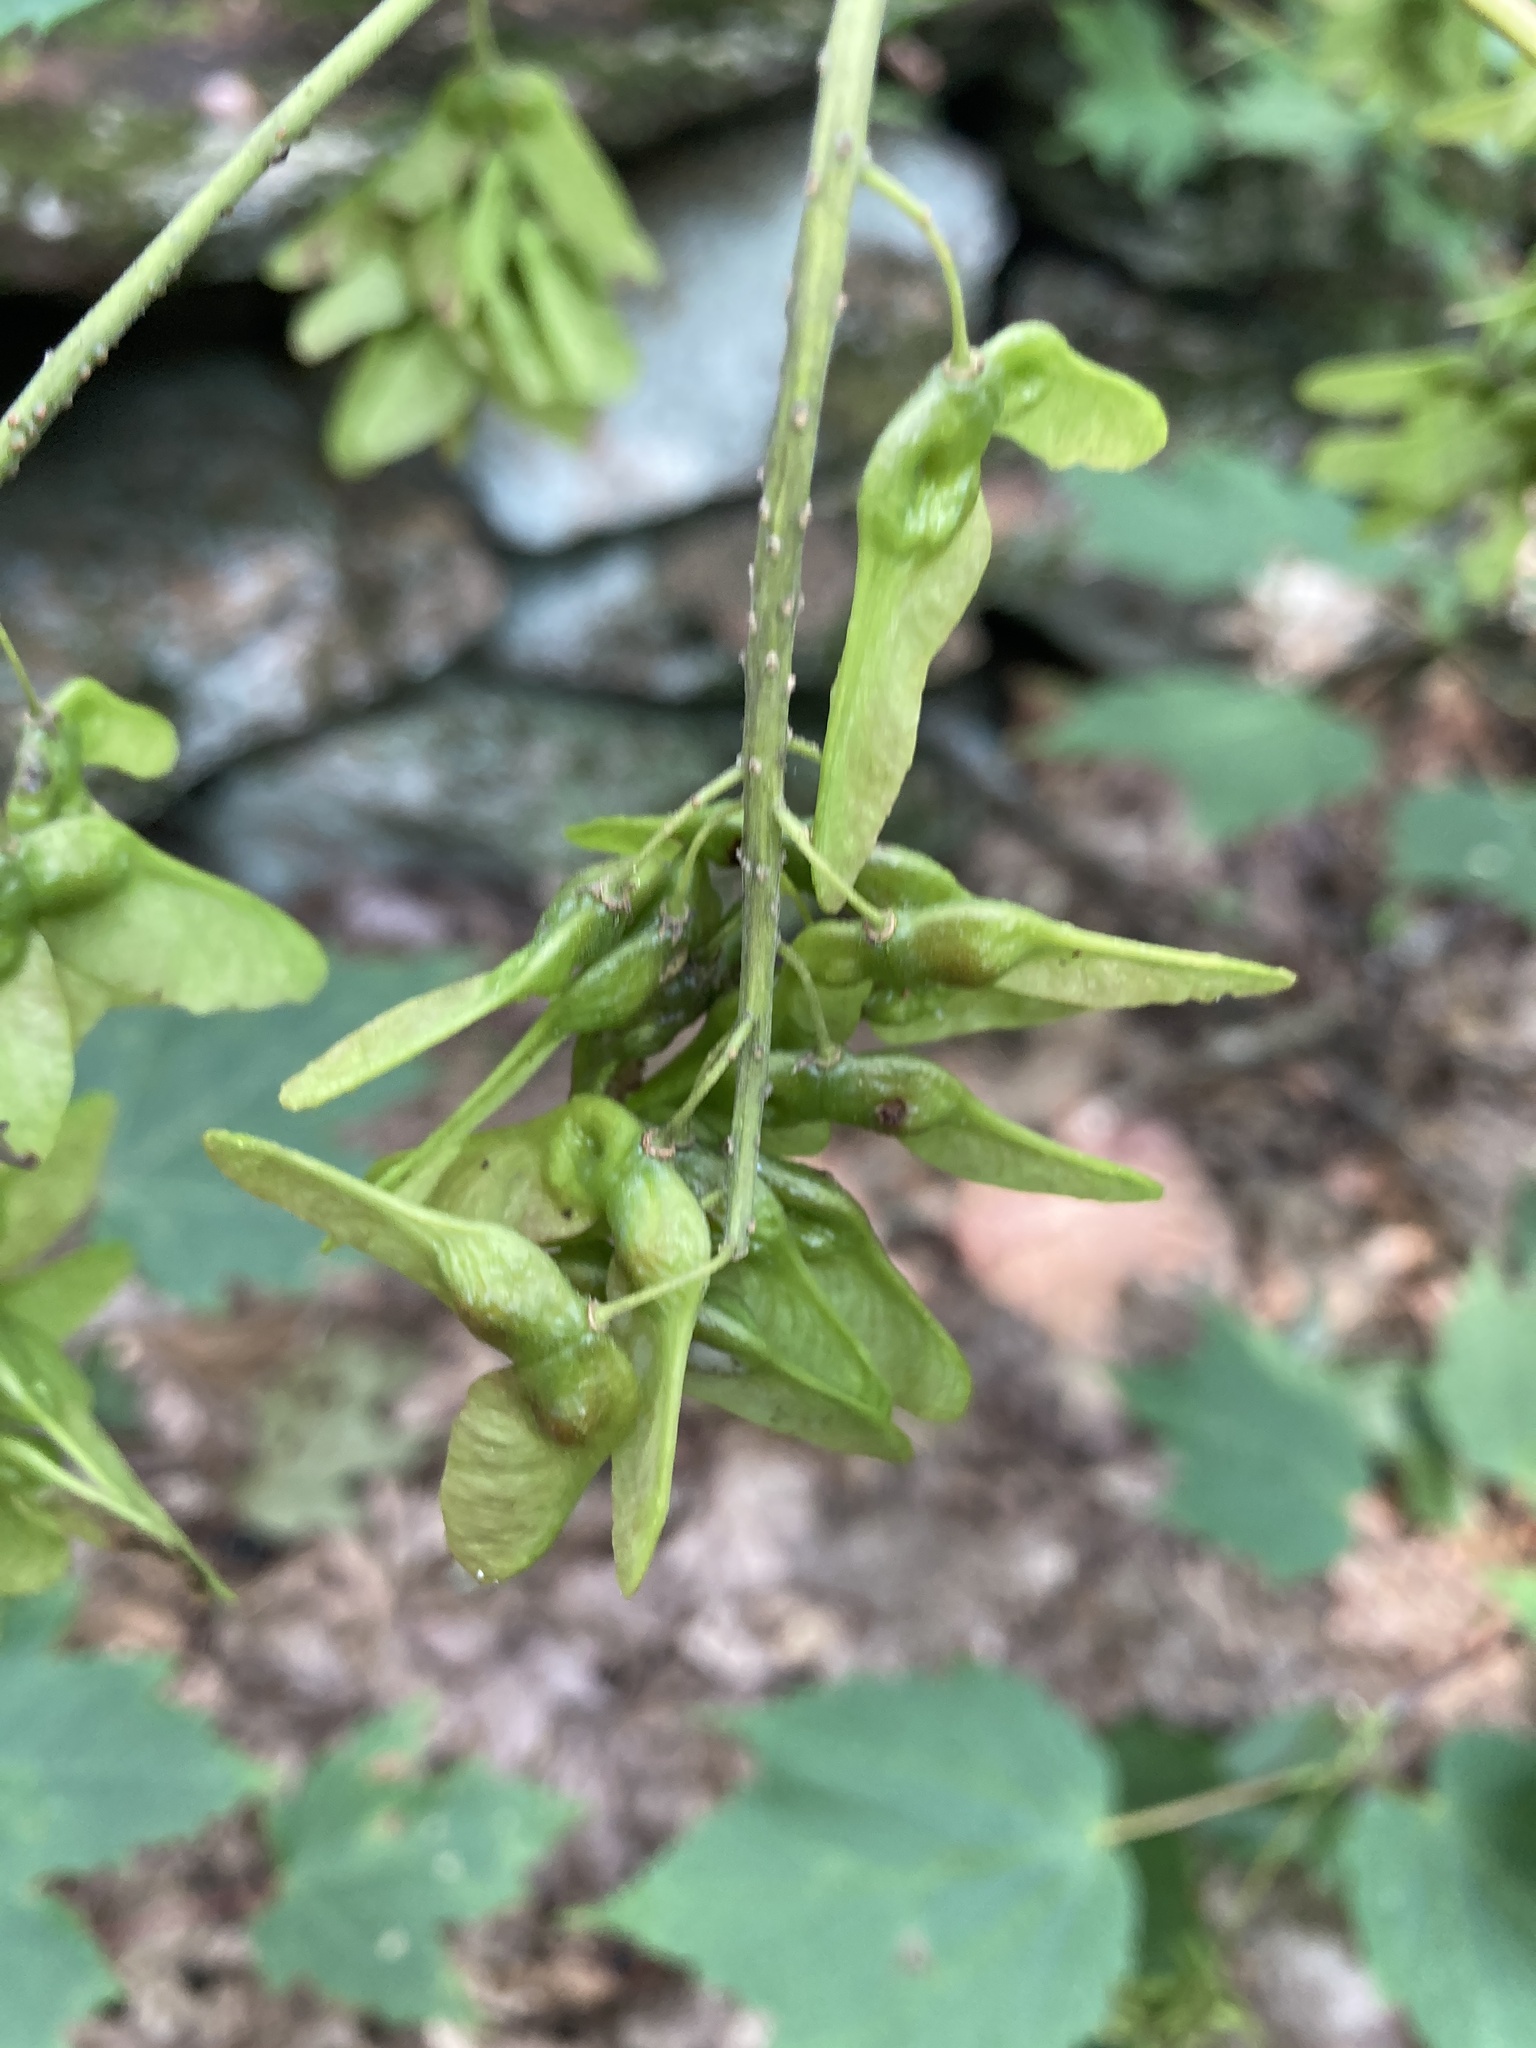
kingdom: Plantae
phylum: Tracheophyta
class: Magnoliopsida
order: Sapindales
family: Sapindaceae
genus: Acer
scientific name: Acer spicatum
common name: Mountain maple
